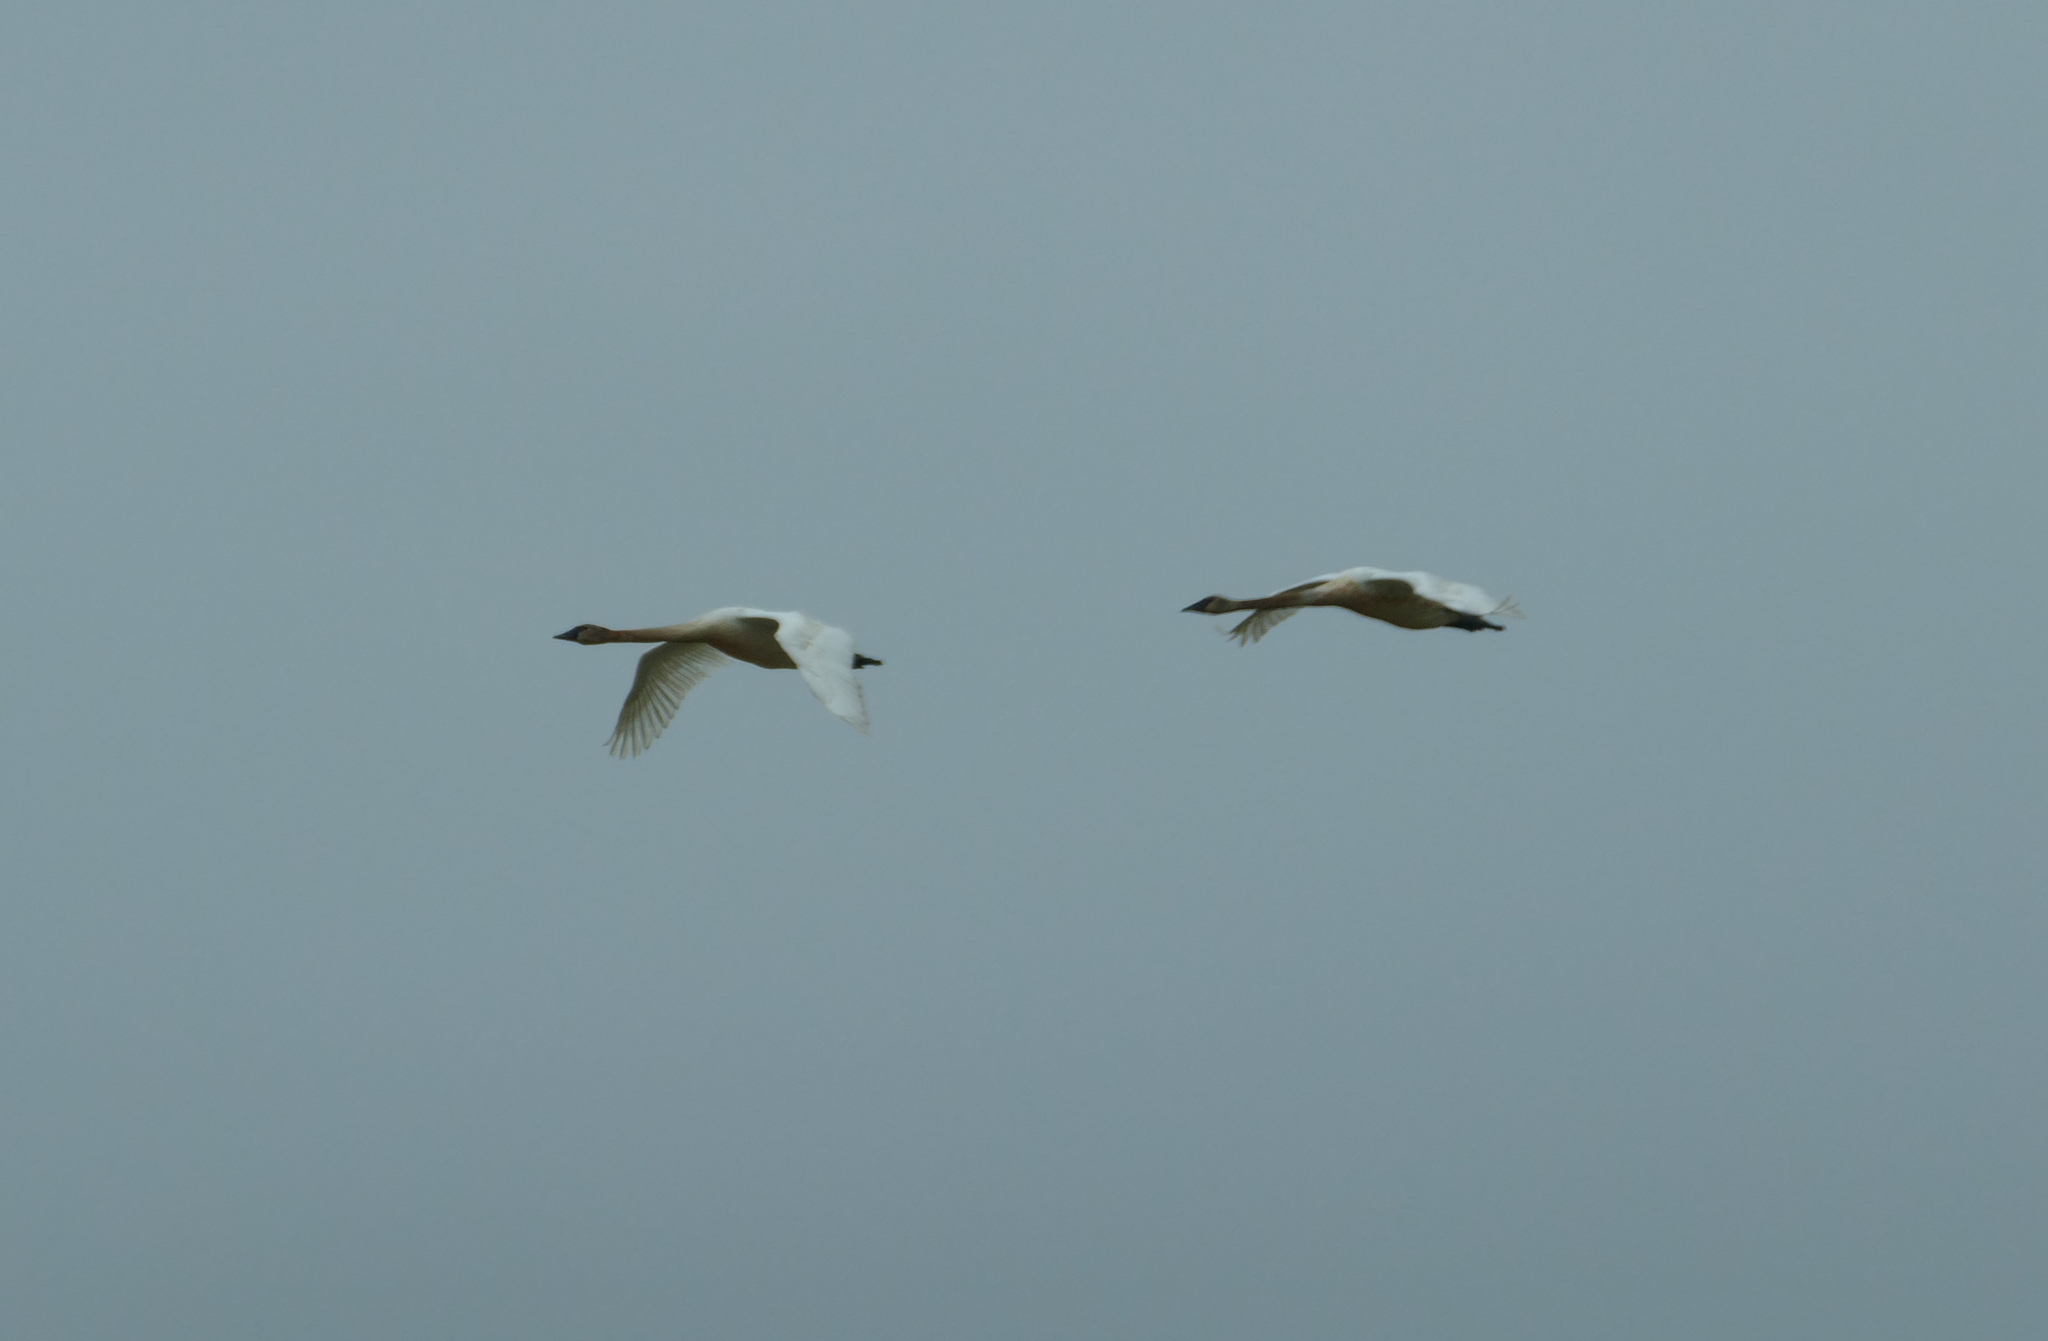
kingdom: Animalia
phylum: Chordata
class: Aves
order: Anseriformes
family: Anatidae
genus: Cygnus
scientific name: Cygnus buccinator
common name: Trumpeter swan
